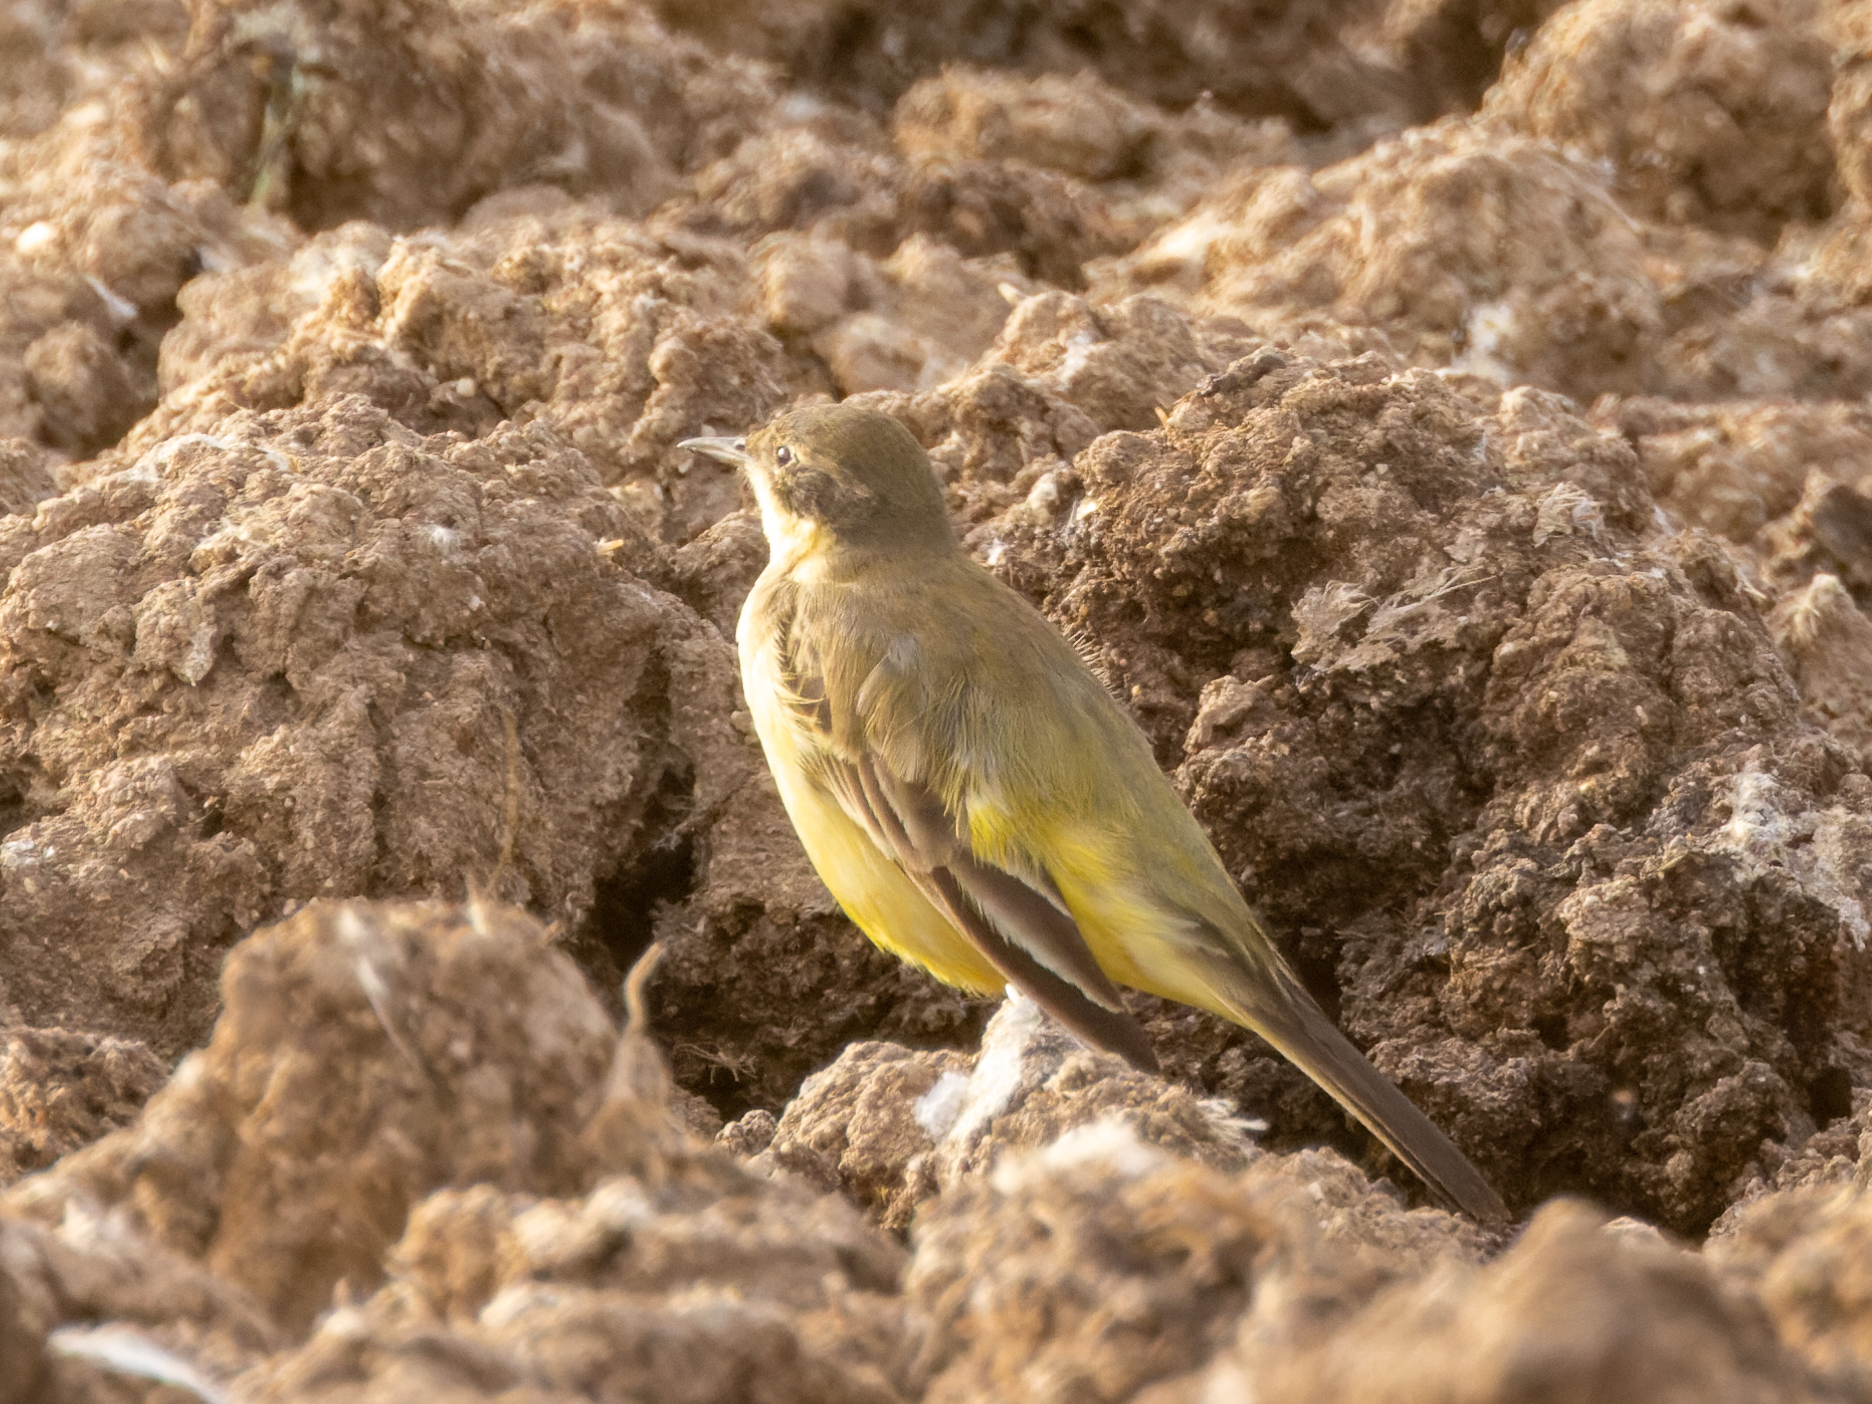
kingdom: Animalia
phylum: Chordata
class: Aves
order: Passeriformes
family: Motacillidae
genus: Motacilla
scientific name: Motacilla flava
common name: Western yellow wagtail
